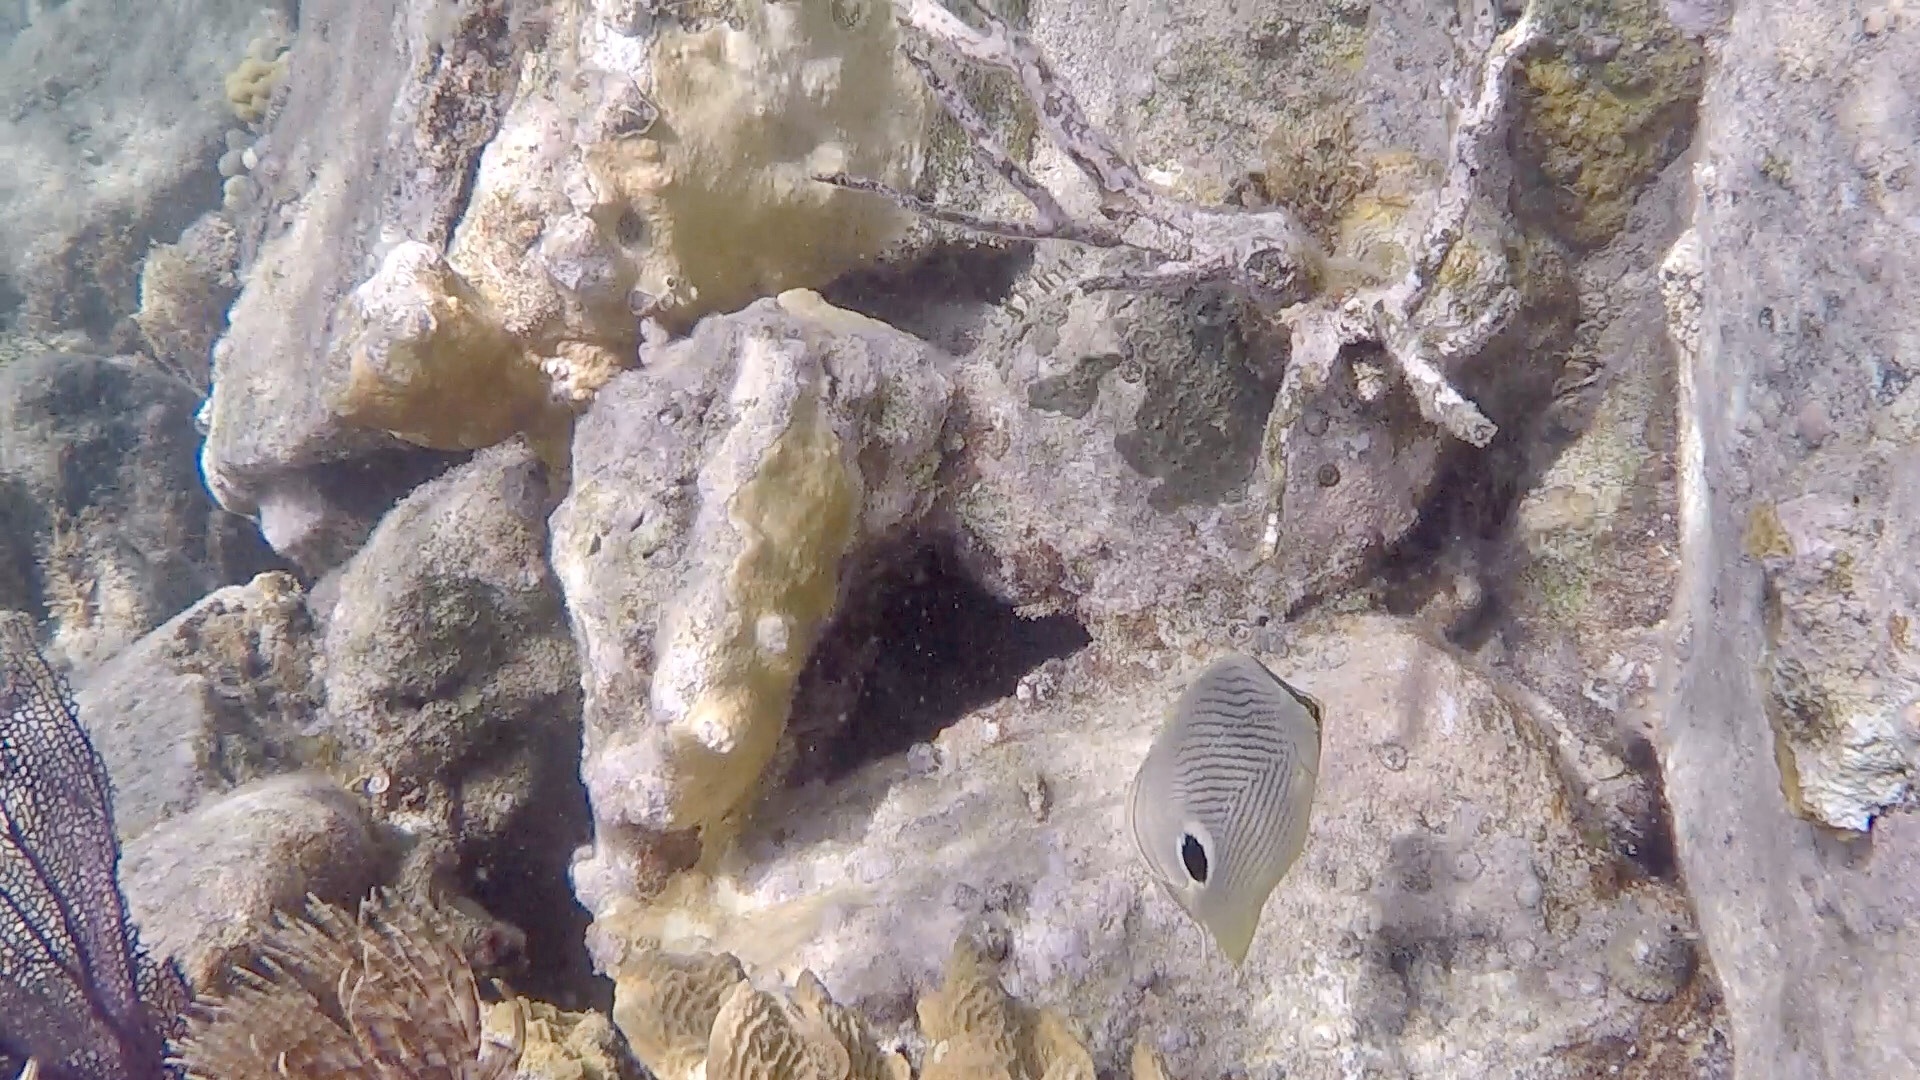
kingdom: Animalia
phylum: Chordata
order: Perciformes
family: Chaetodontidae
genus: Chaetodon
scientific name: Chaetodon capistratus
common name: Kete
